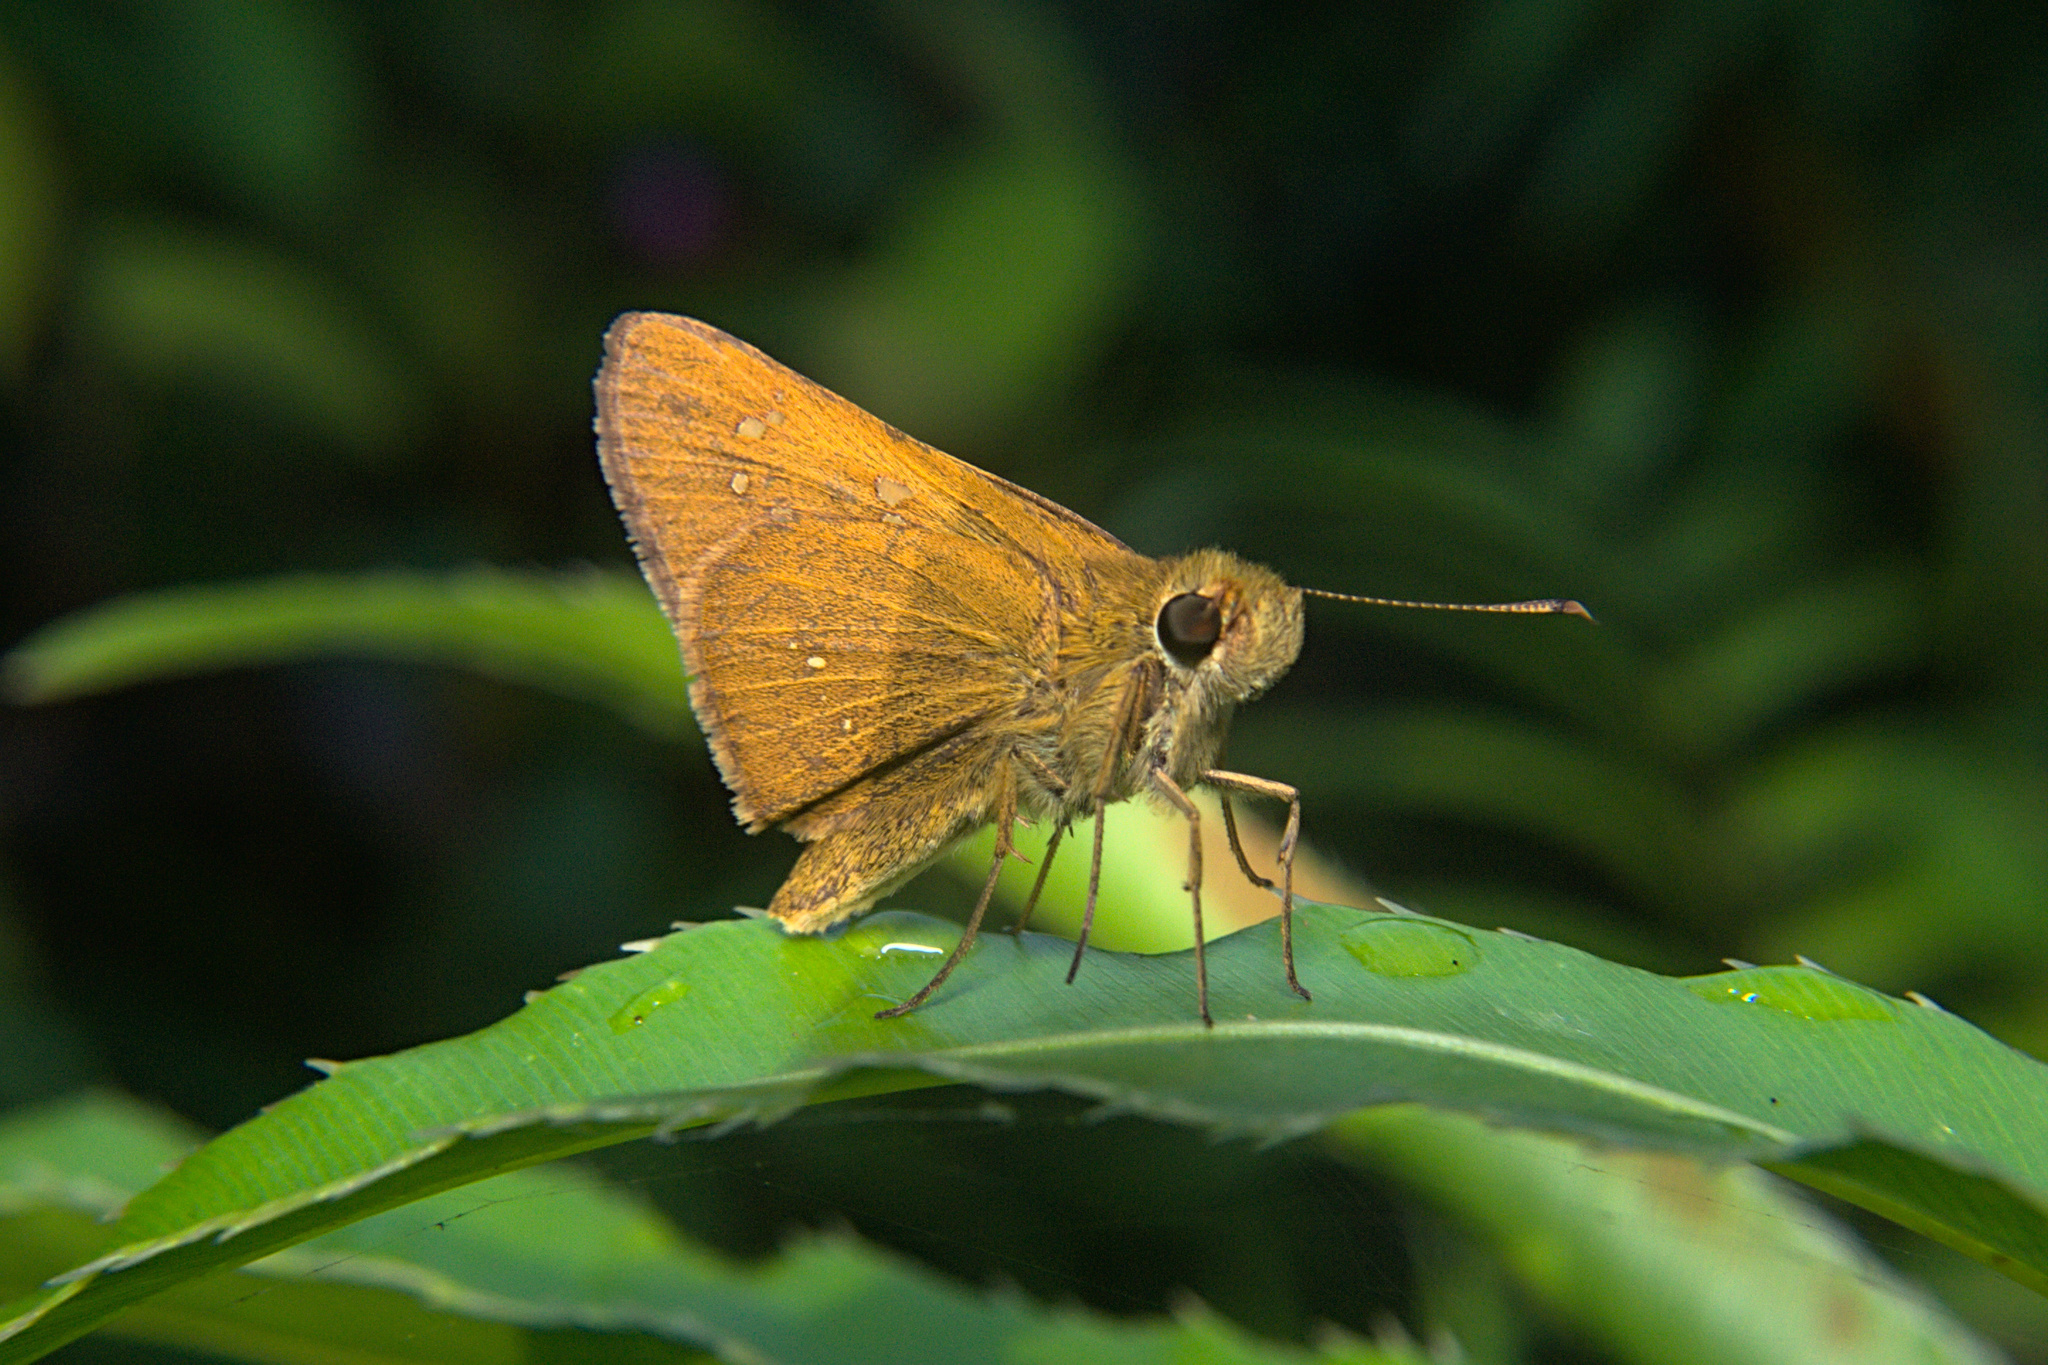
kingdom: Animalia
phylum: Arthropoda
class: Insecta
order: Lepidoptera
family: Hesperiidae
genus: Polytremis
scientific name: Polytremis lubricans
